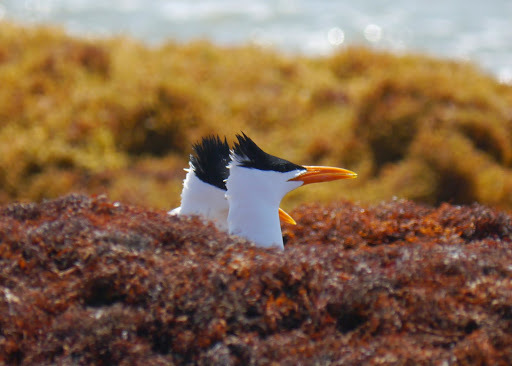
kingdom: Animalia
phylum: Chordata
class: Aves
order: Charadriiformes
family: Laridae
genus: Thalasseus
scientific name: Thalasseus maximus
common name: Royal tern
